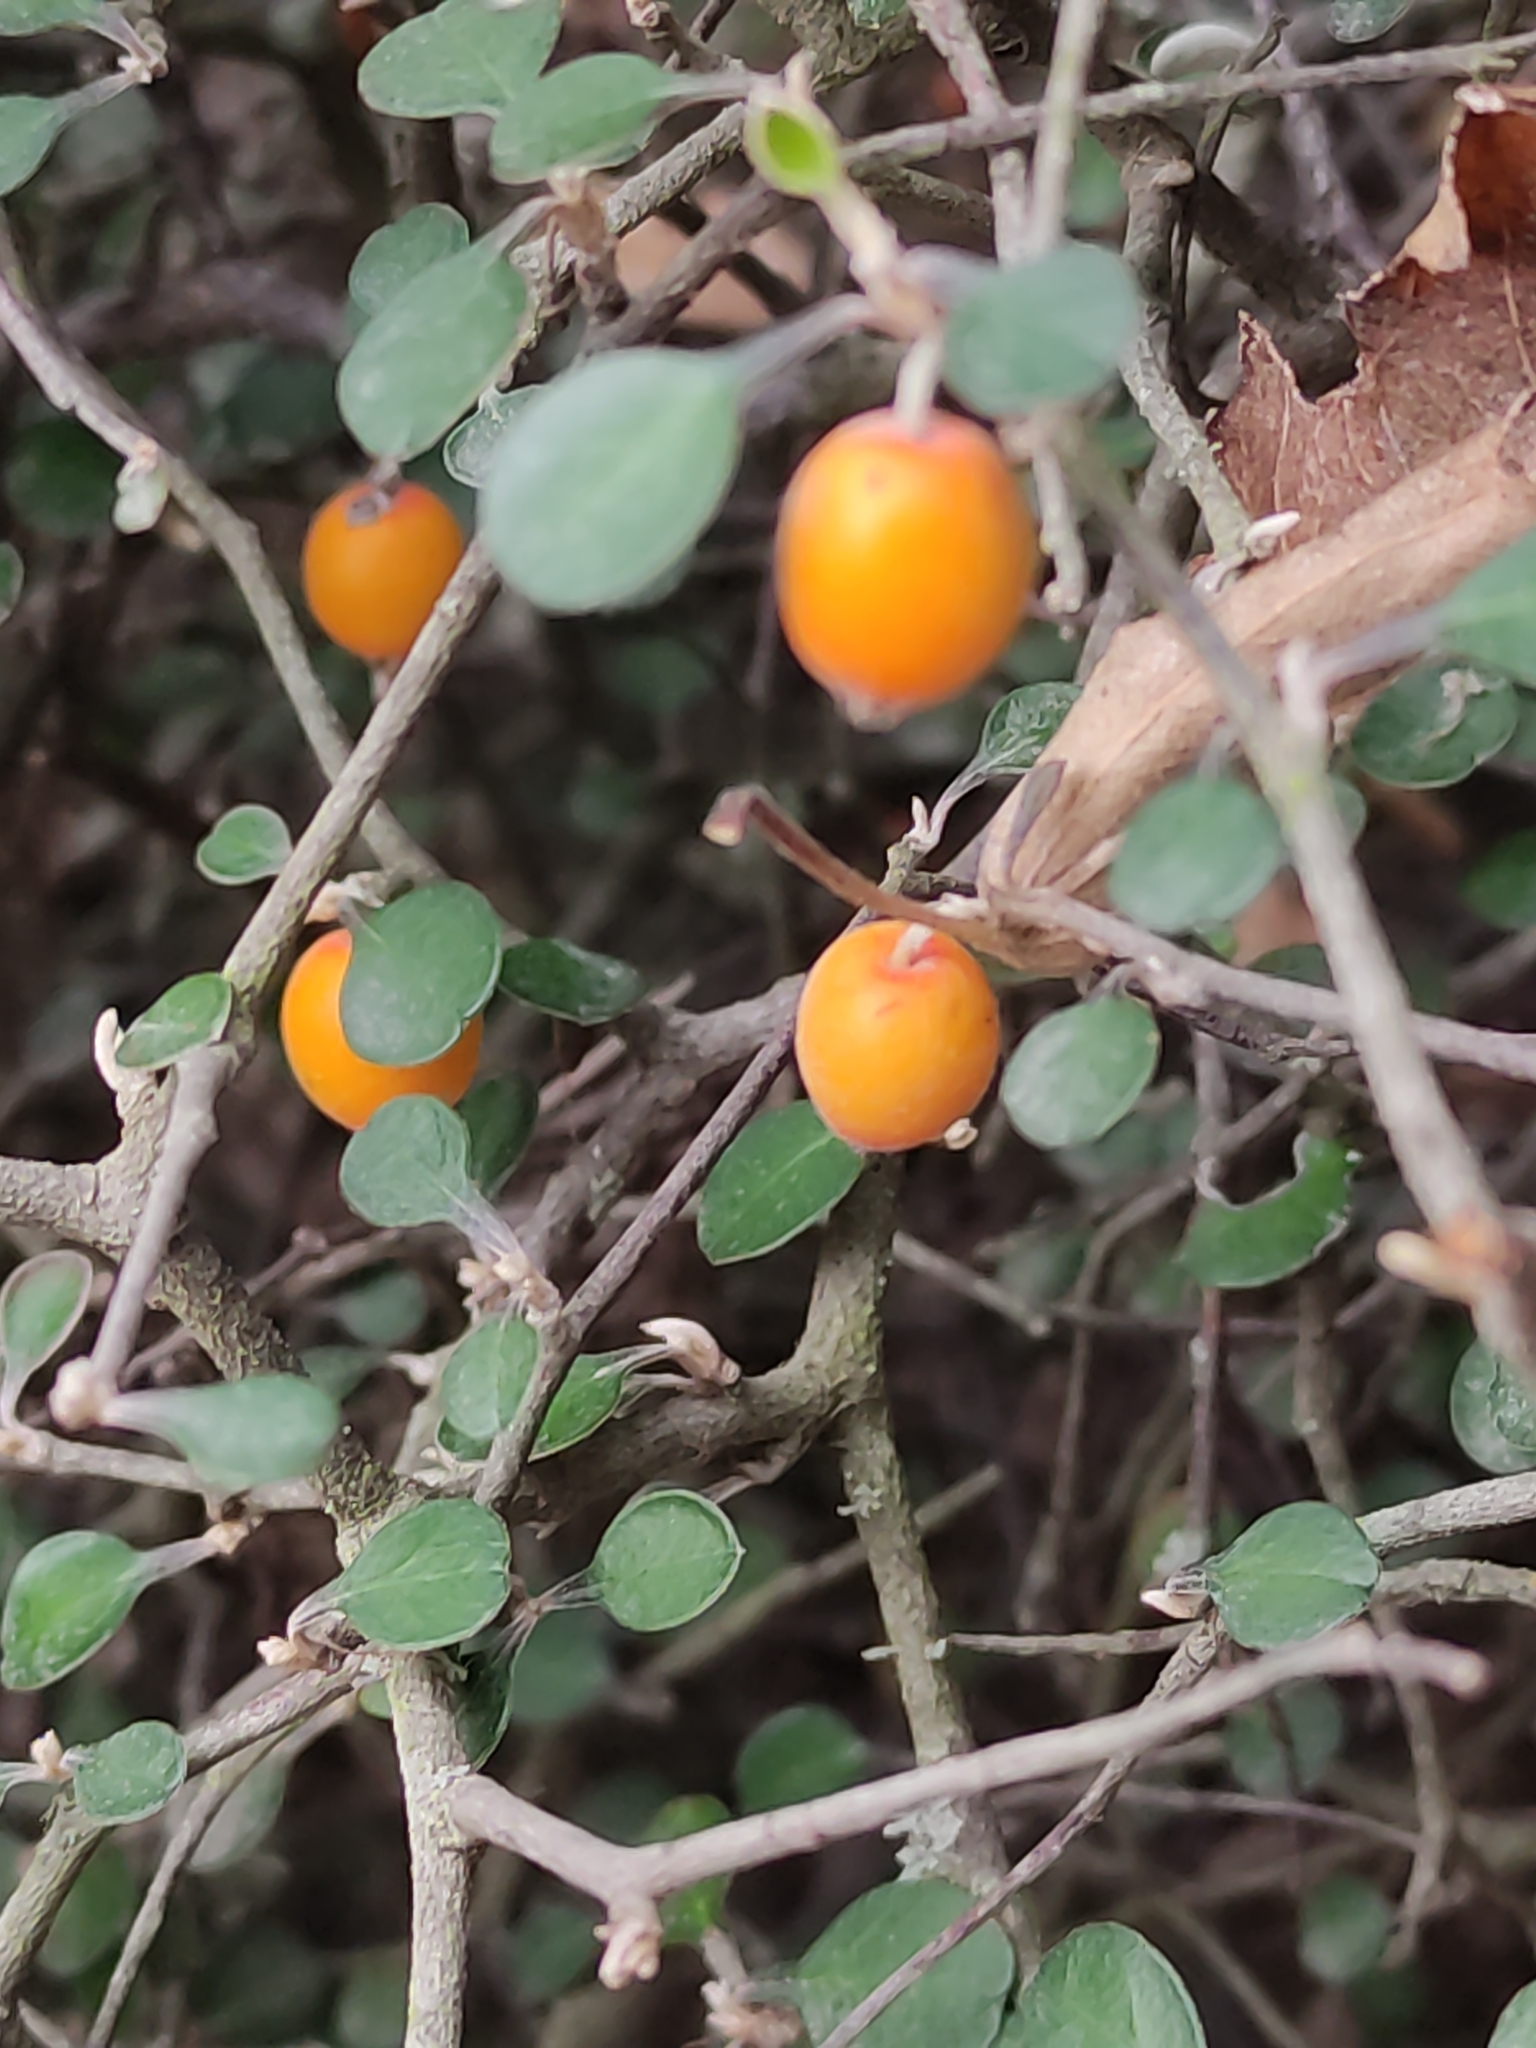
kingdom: Plantae
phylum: Tracheophyta
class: Magnoliopsida
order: Asterales
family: Argophyllaceae
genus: Corokia
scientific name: Corokia cotoneaster
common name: Wire nettingbush
